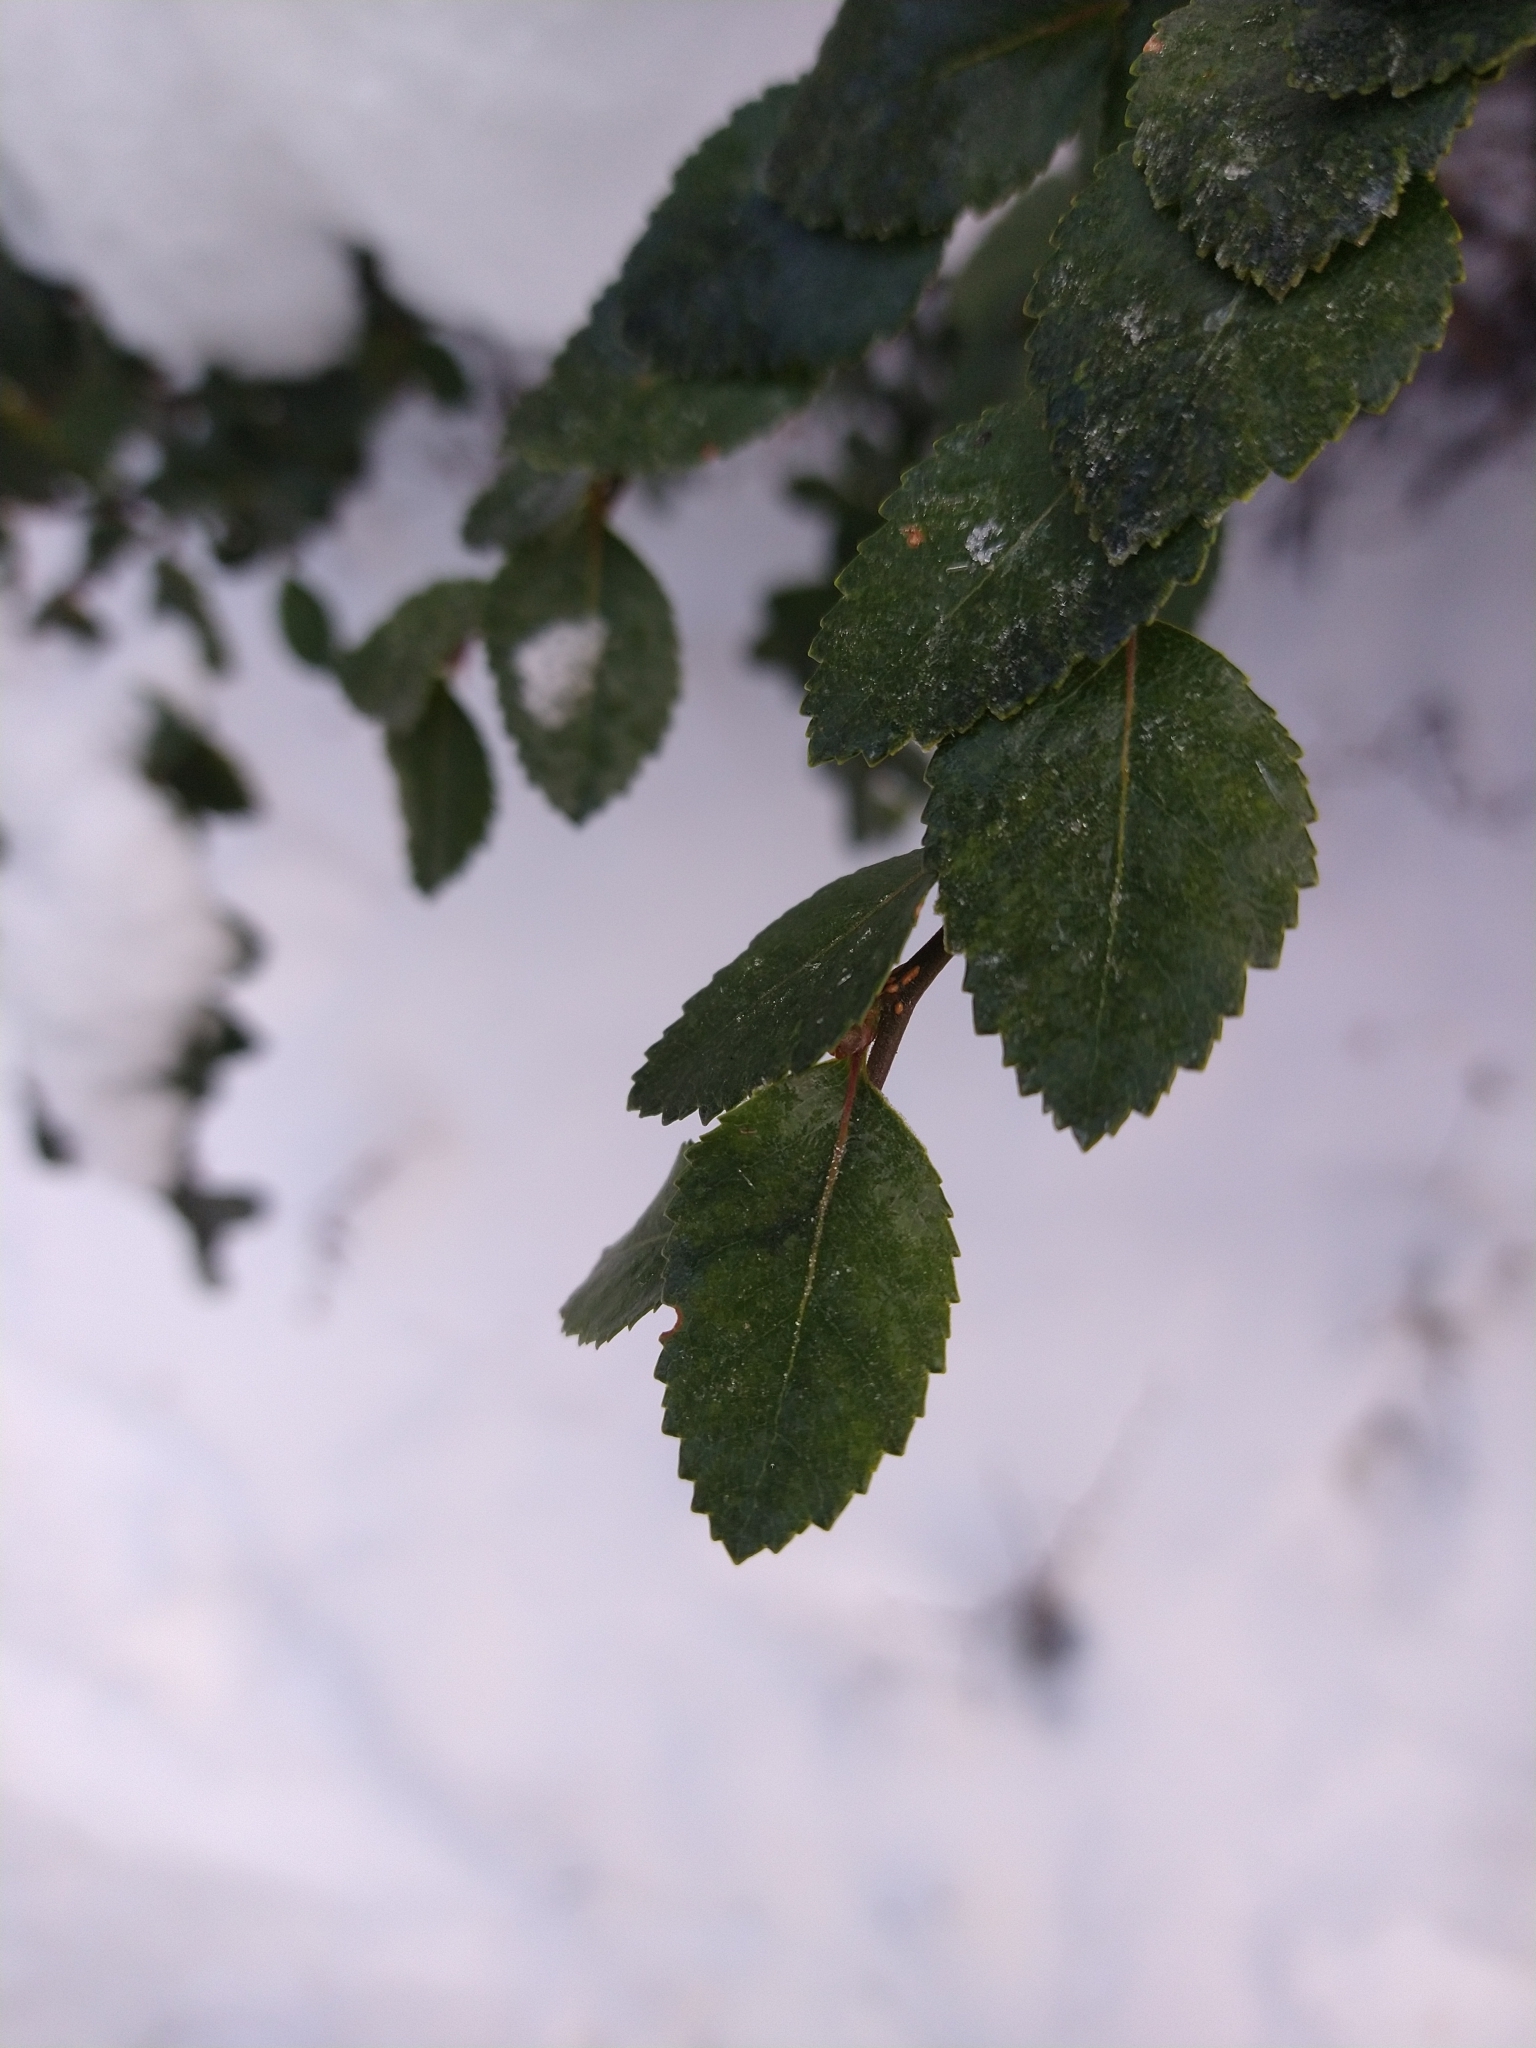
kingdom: Plantae
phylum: Tracheophyta
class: Magnoliopsida
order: Fagales
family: Nothofagaceae
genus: Nothofagus
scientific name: Nothofagus betuloides
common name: Magellan's beech
